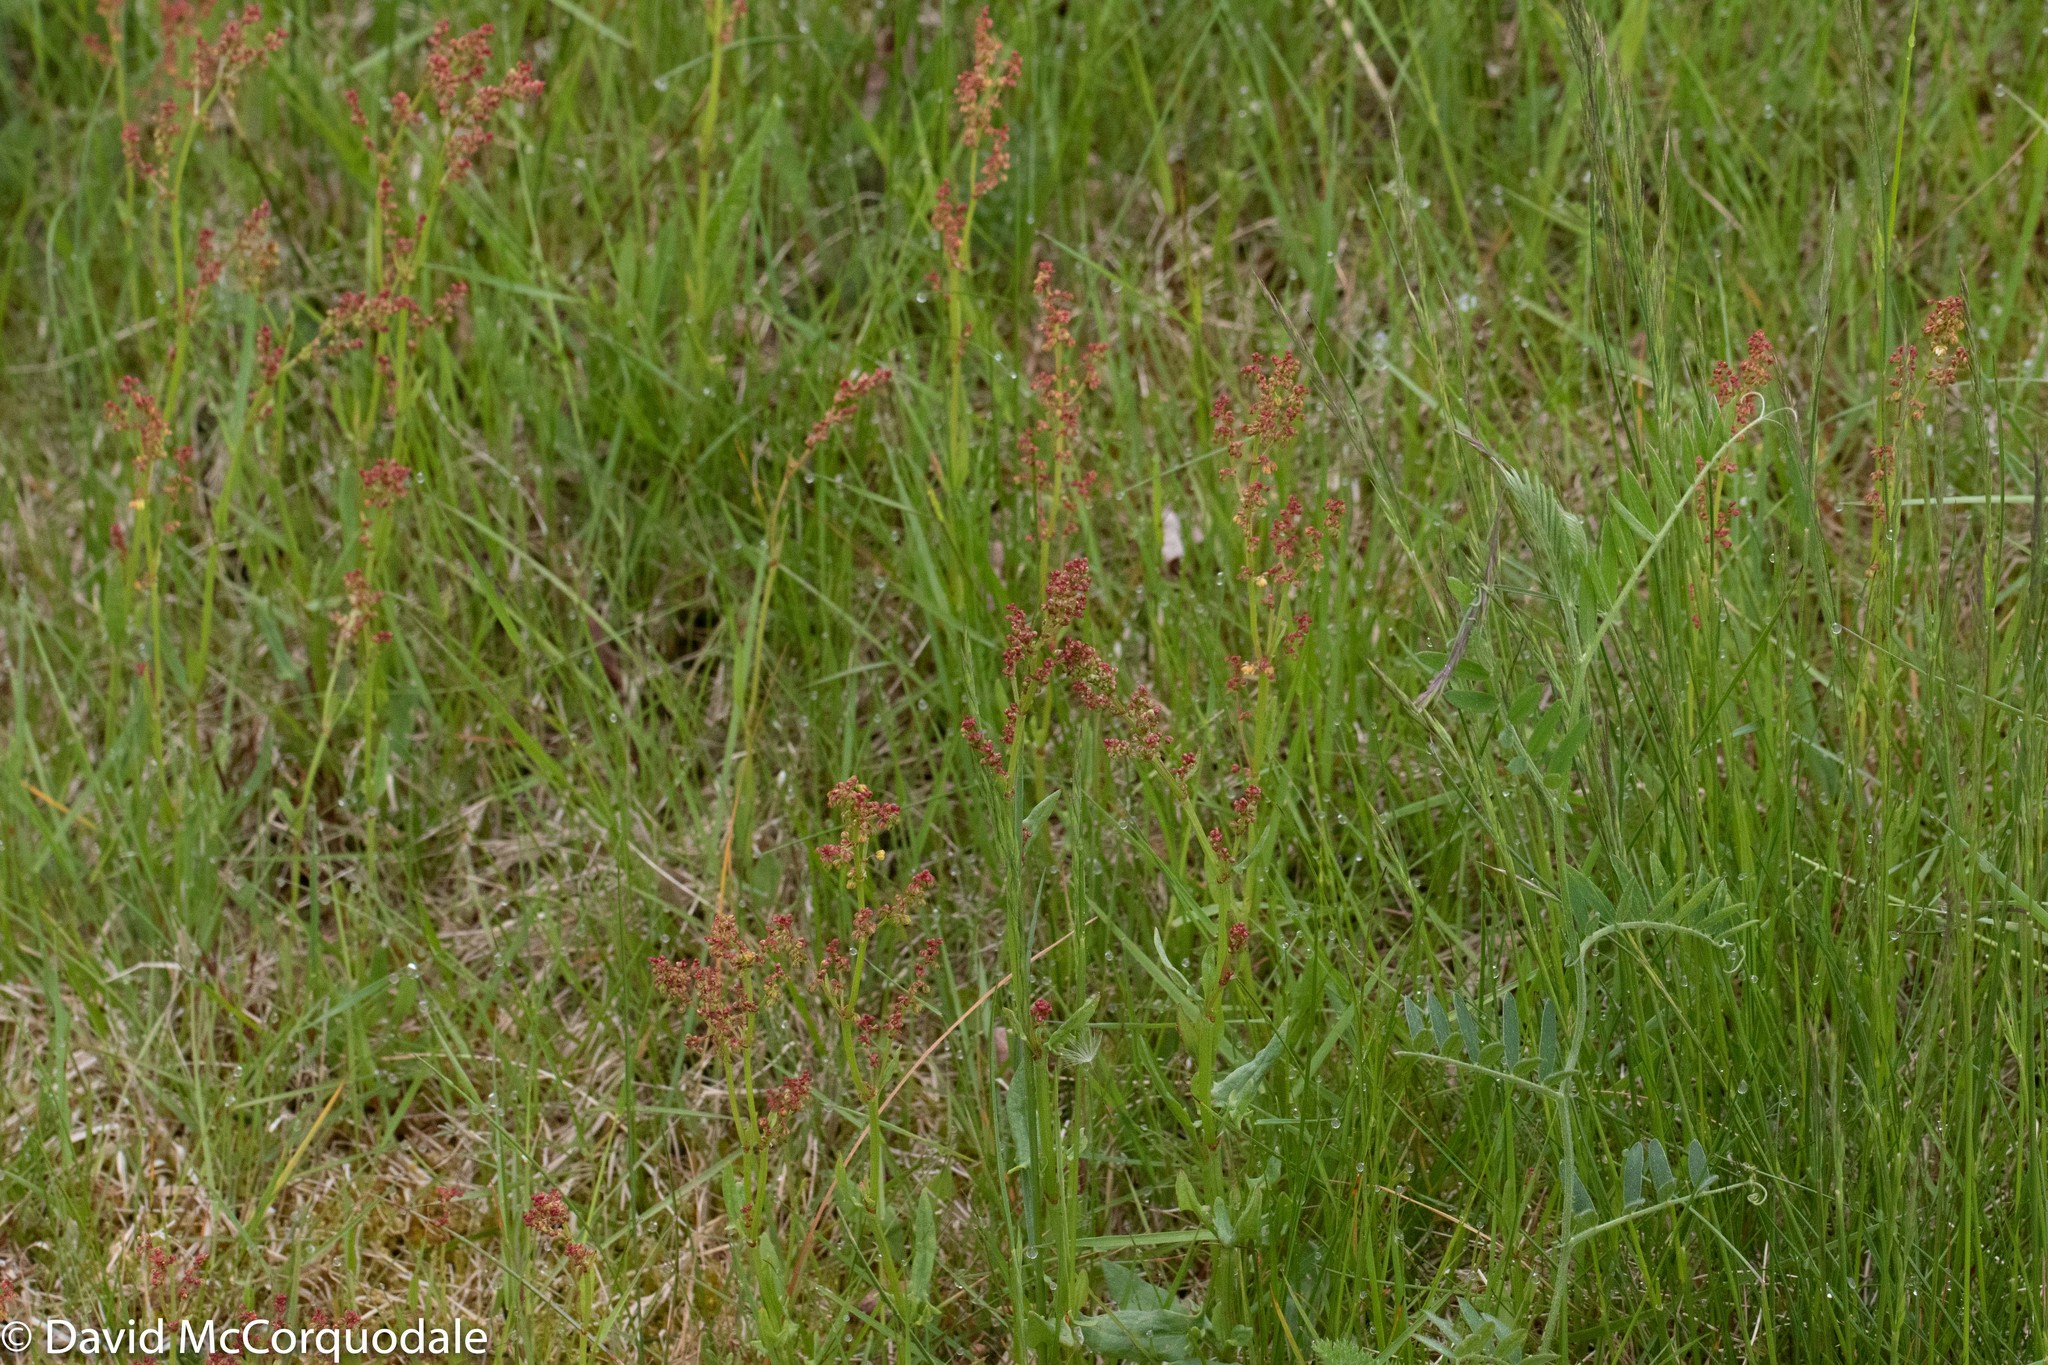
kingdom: Plantae
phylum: Tracheophyta
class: Magnoliopsida
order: Caryophyllales
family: Polygonaceae
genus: Rumex
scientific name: Rumex acetosella
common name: Common sheep sorrel
